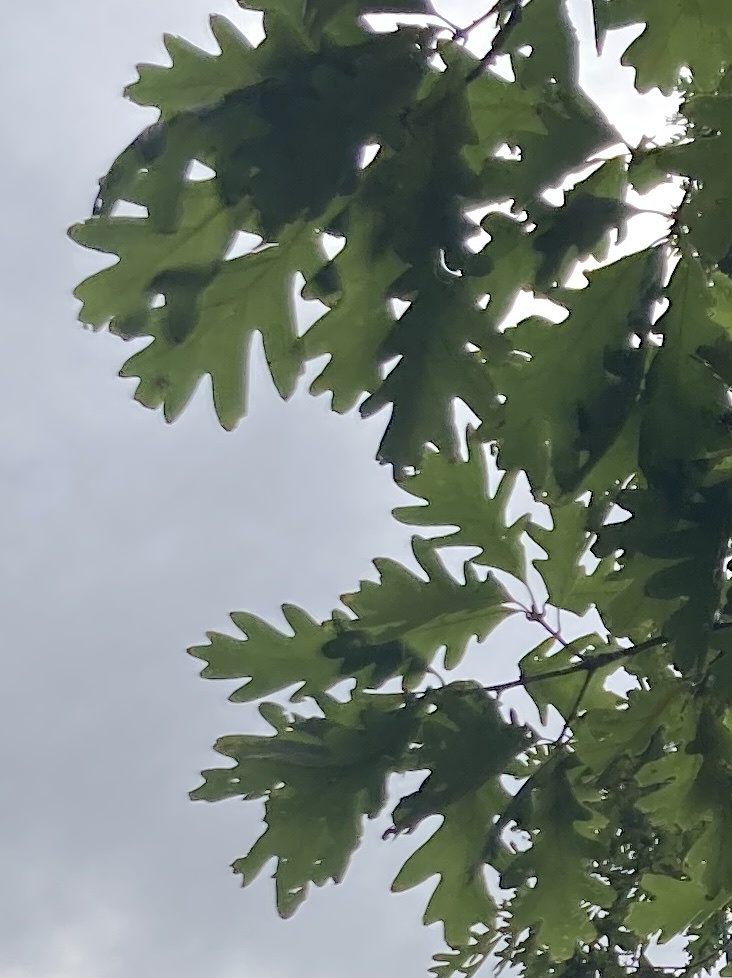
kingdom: Plantae
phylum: Tracheophyta
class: Magnoliopsida
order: Fagales
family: Fagaceae
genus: Quercus
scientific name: Quercus alba
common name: White oak
